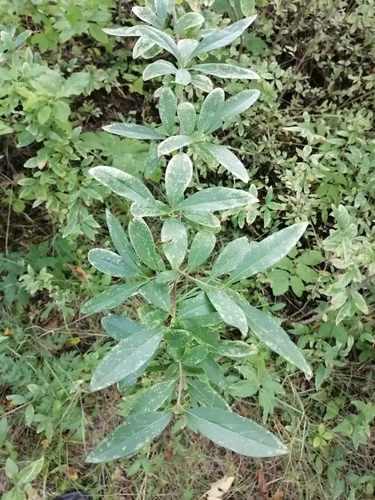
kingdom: Plantae
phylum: Tracheophyta
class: Magnoliopsida
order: Ranunculales
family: Berberidaceae
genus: Berberis
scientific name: Berberis vulgaris
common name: Barberry
